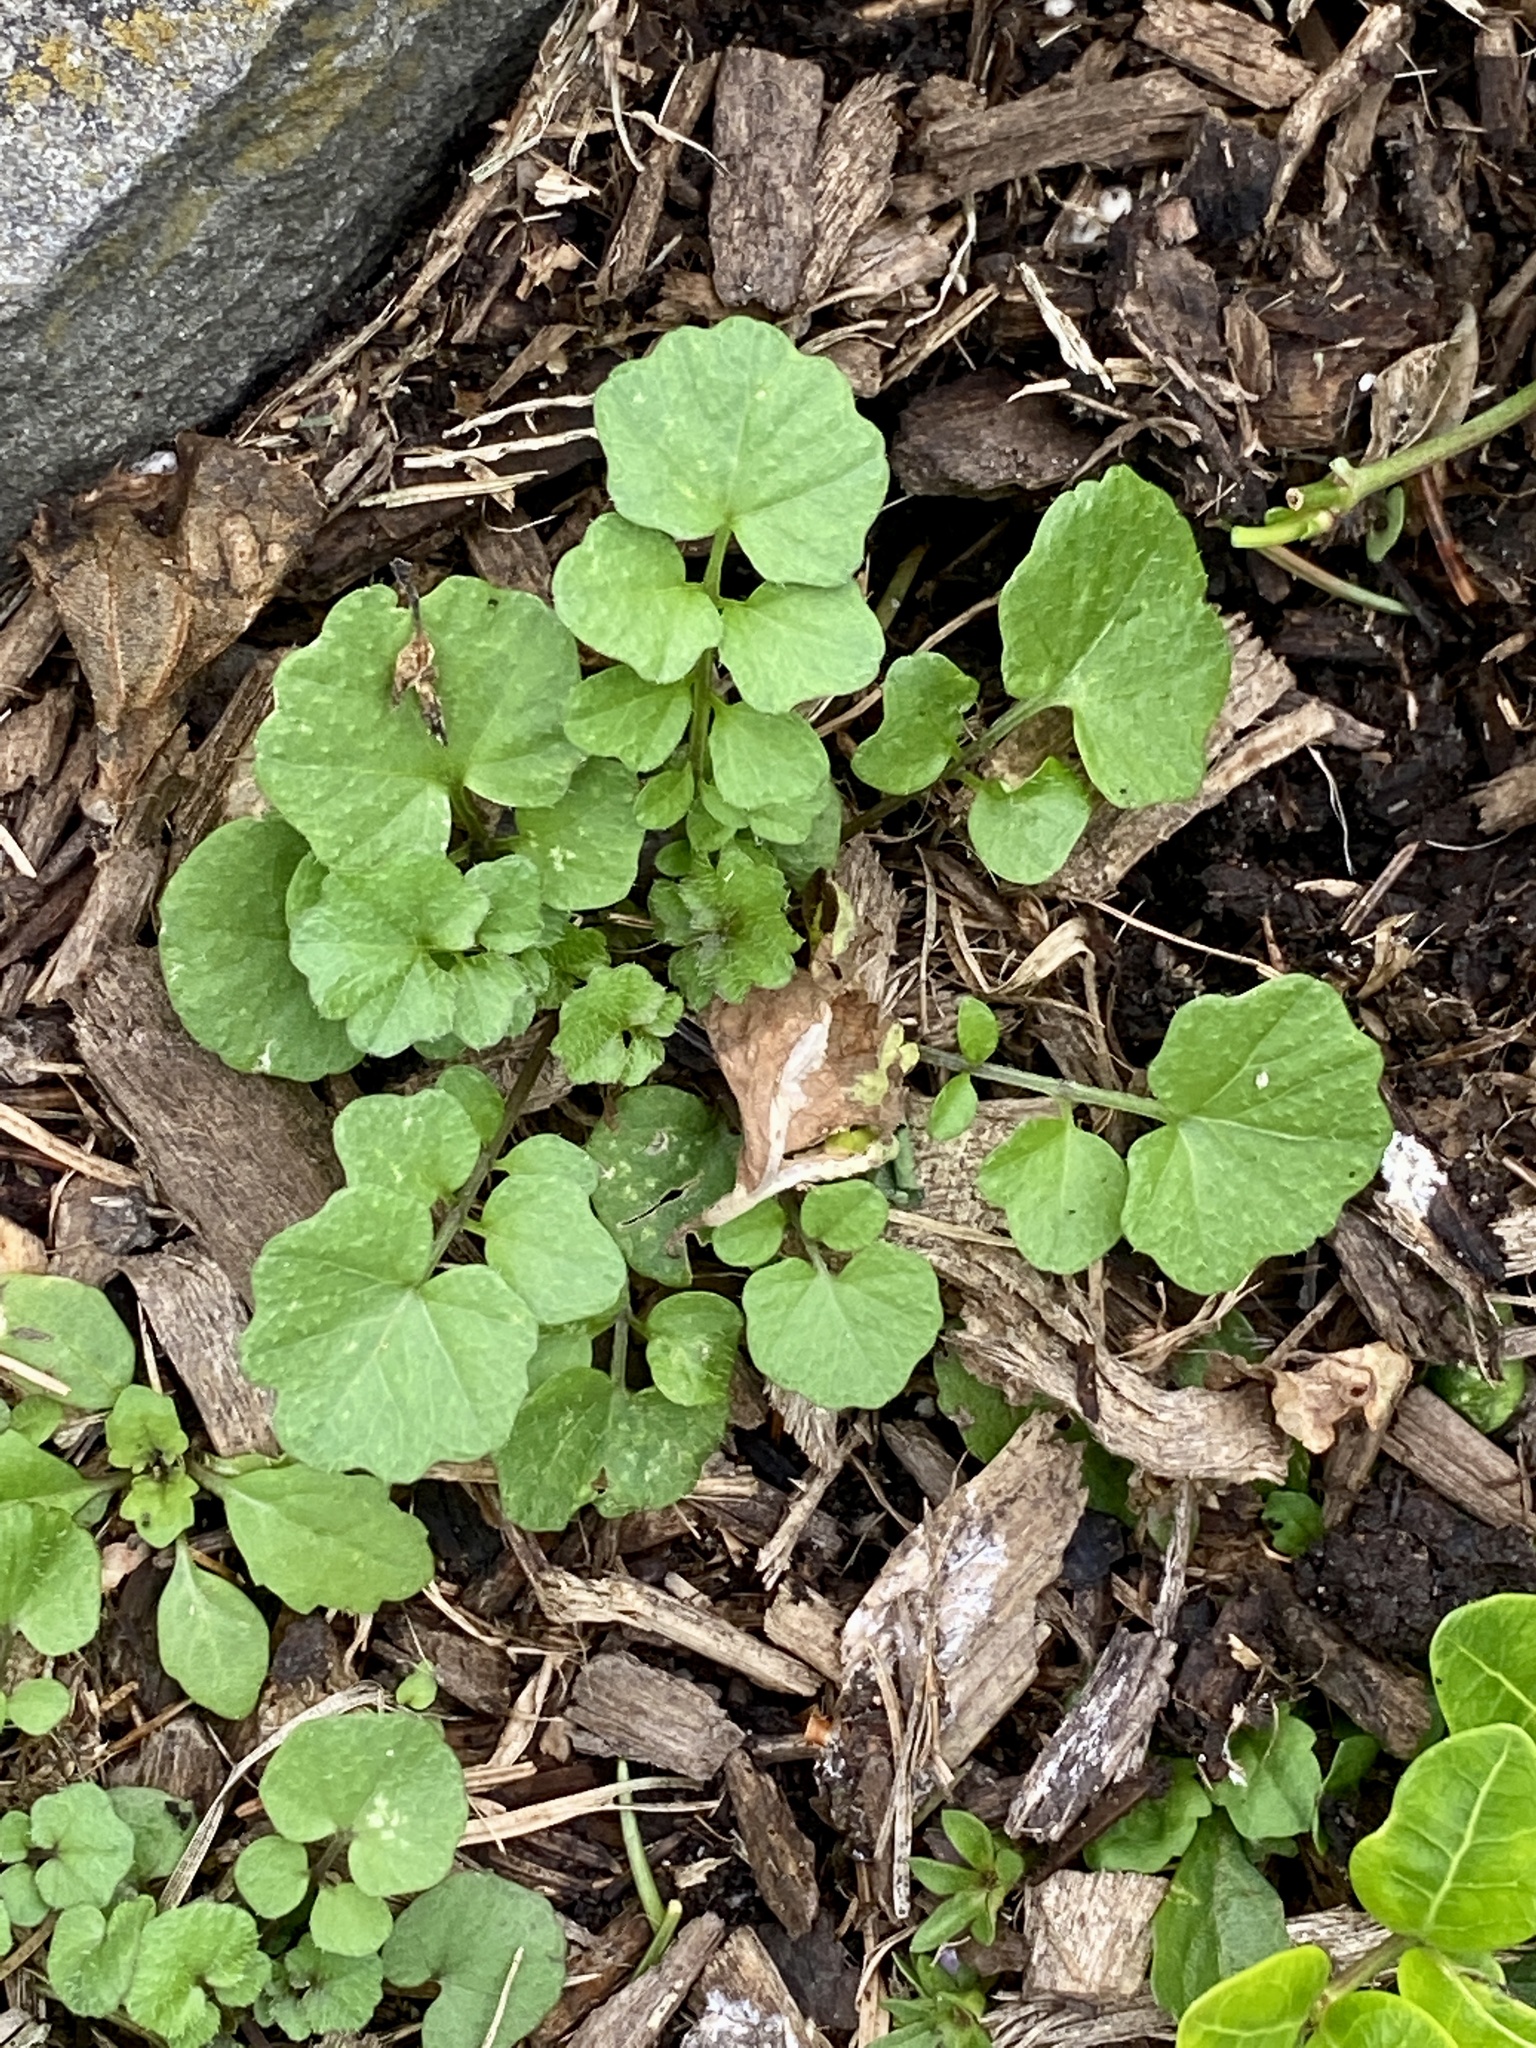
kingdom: Plantae
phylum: Tracheophyta
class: Magnoliopsida
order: Brassicales
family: Brassicaceae
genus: Cardamine
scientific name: Cardamine hirsuta
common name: Hairy bittercress
